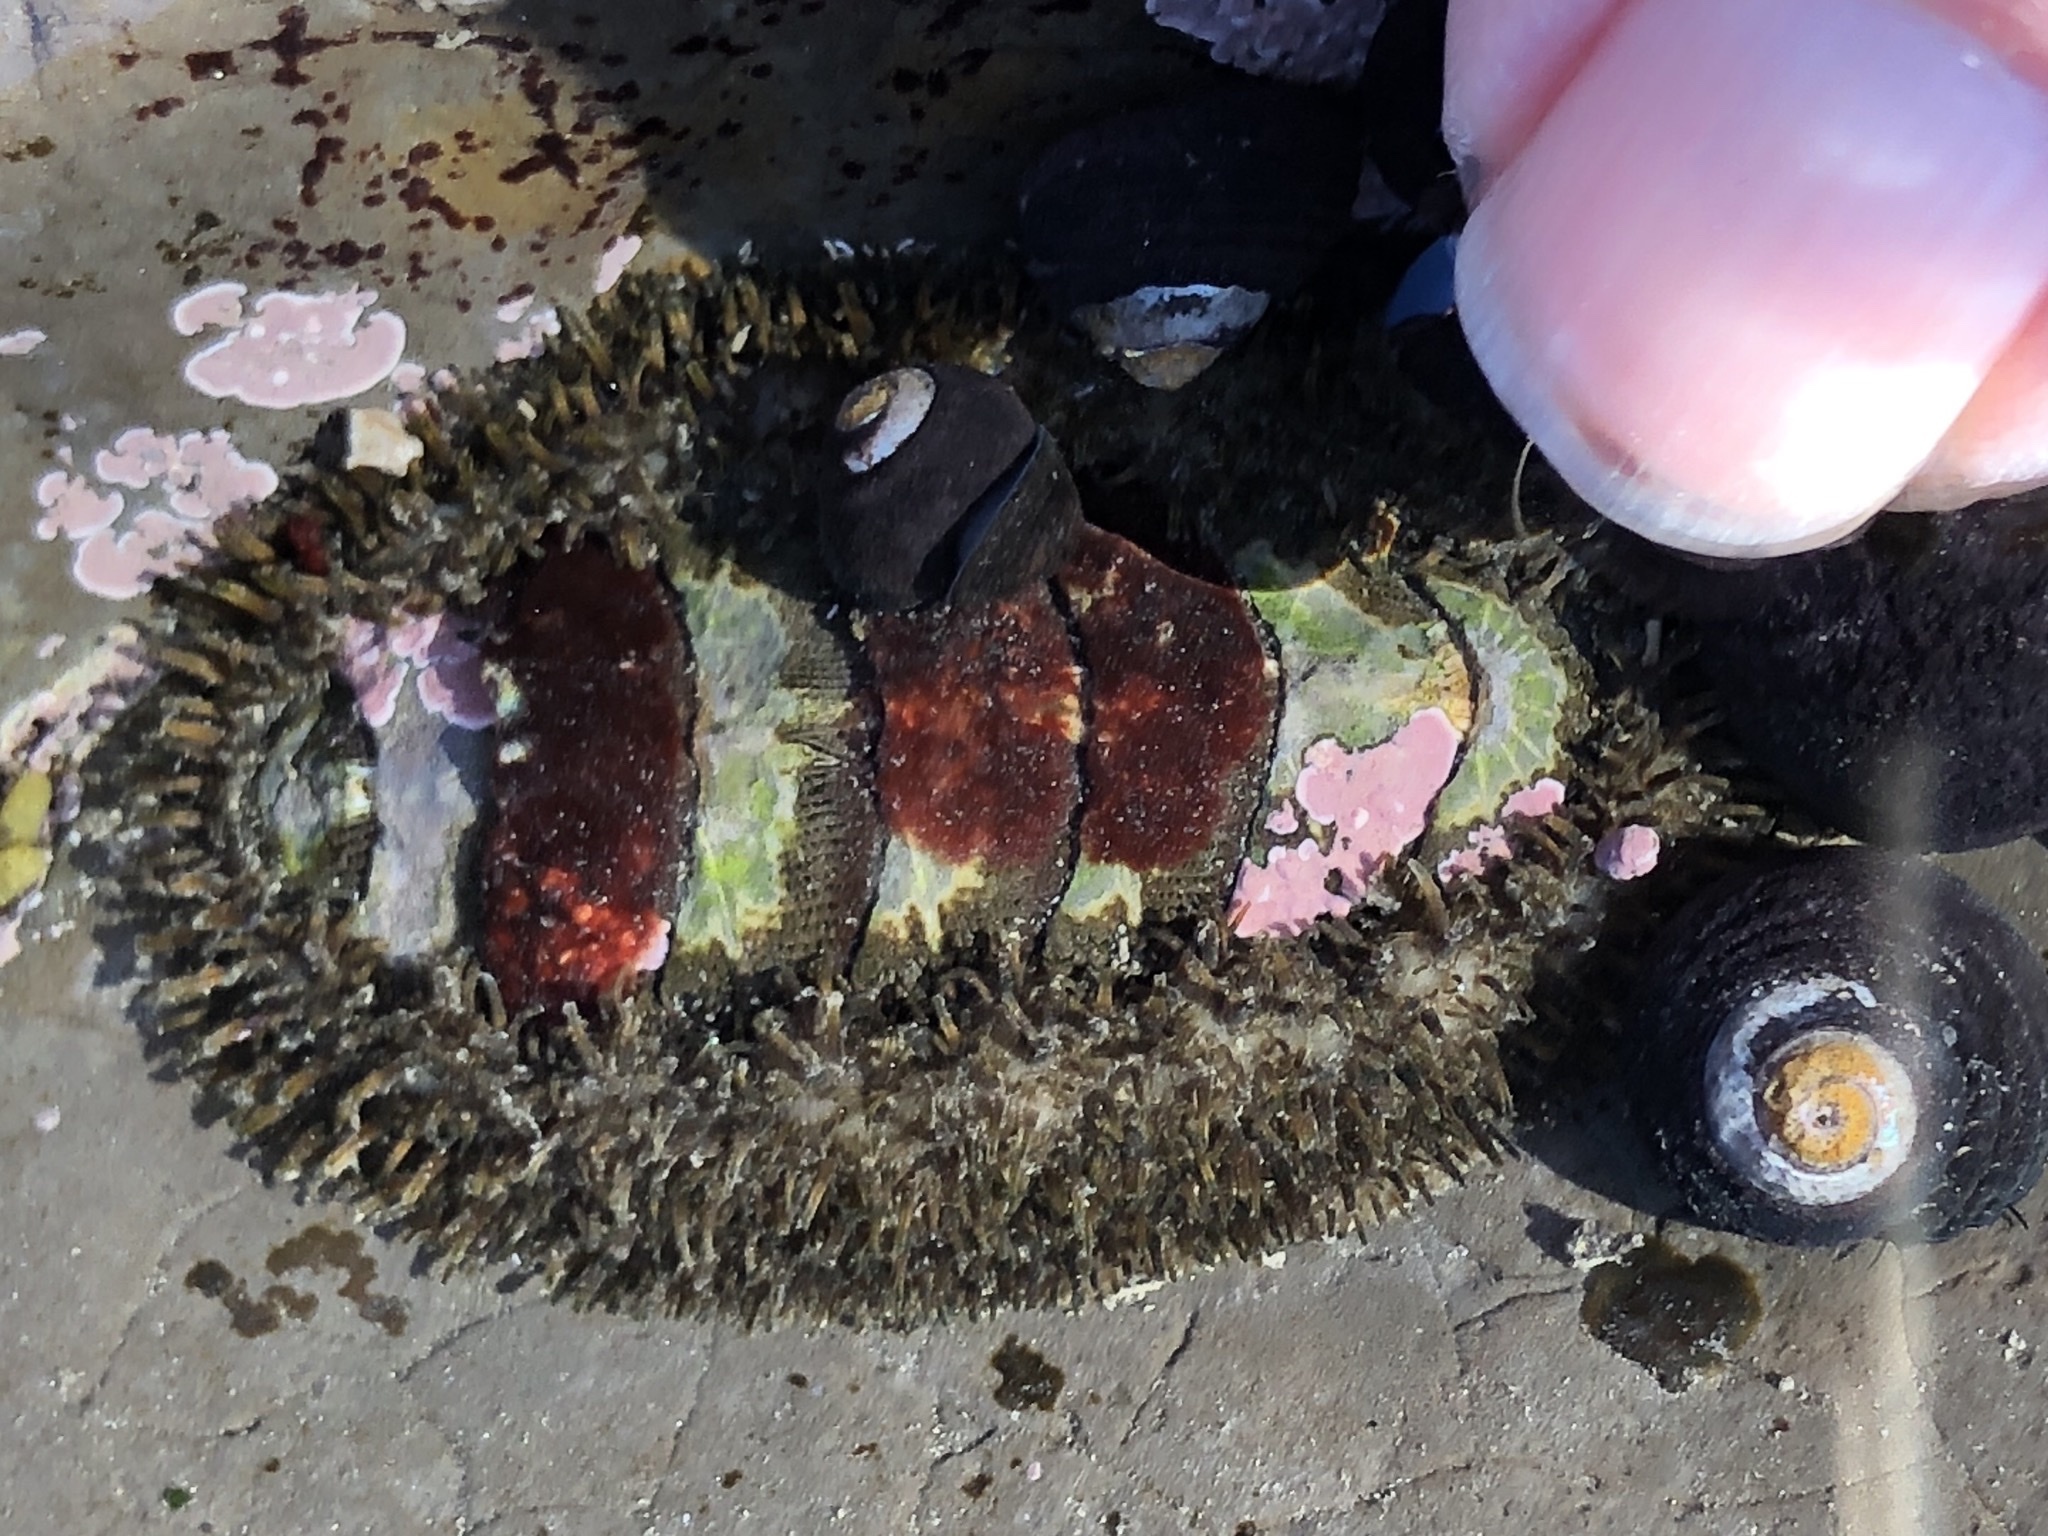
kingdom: Animalia
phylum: Mollusca
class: Polyplacophora
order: Chitonida
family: Mopaliidae
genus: Mopalia
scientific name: Mopalia muscosa
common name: Mossy chiton
